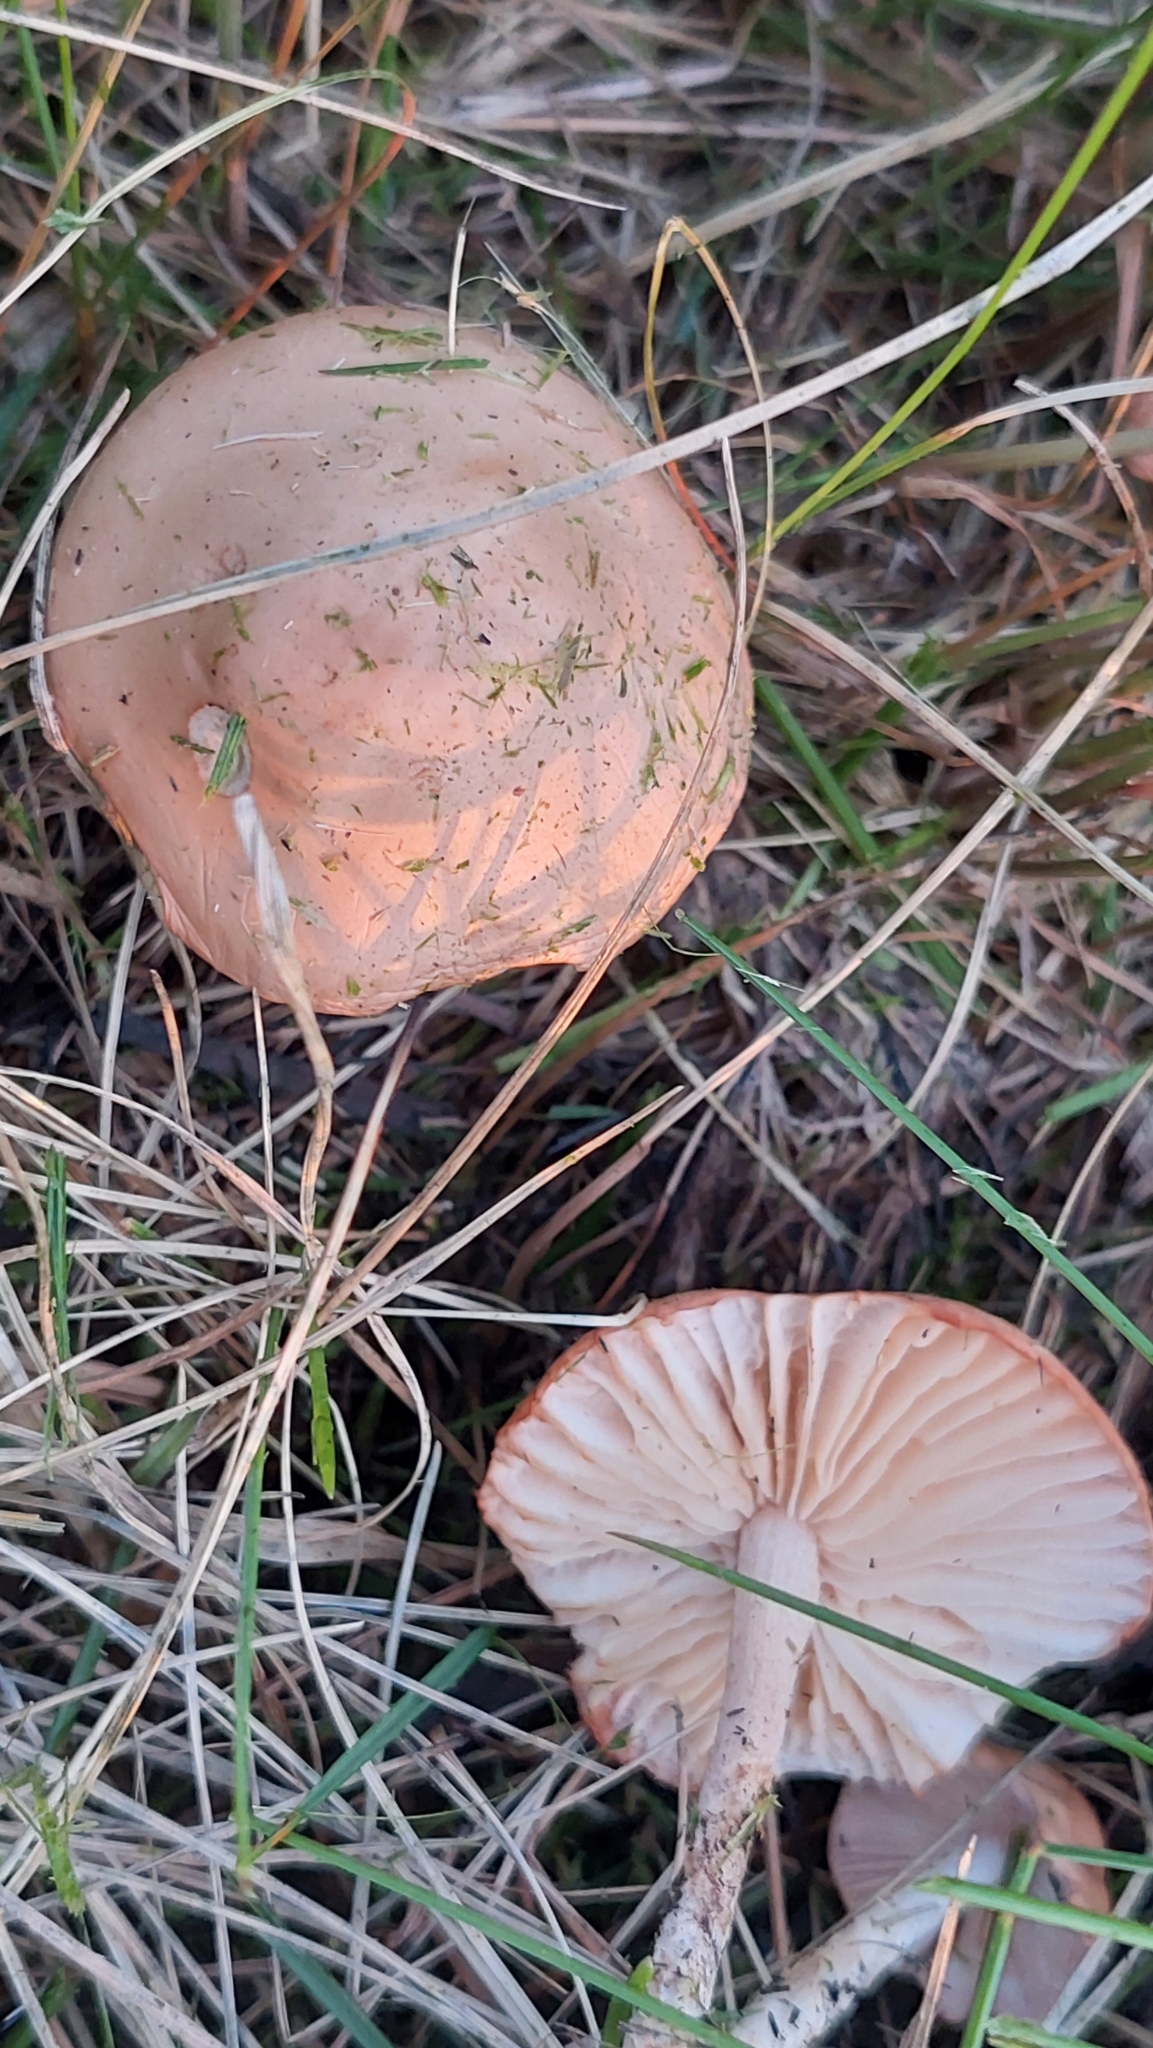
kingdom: Fungi
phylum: Basidiomycota
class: Agaricomycetes
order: Agaricales
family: Marasmiaceae
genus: Marasmius
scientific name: Marasmius oreades
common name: Fairy ring champignon
